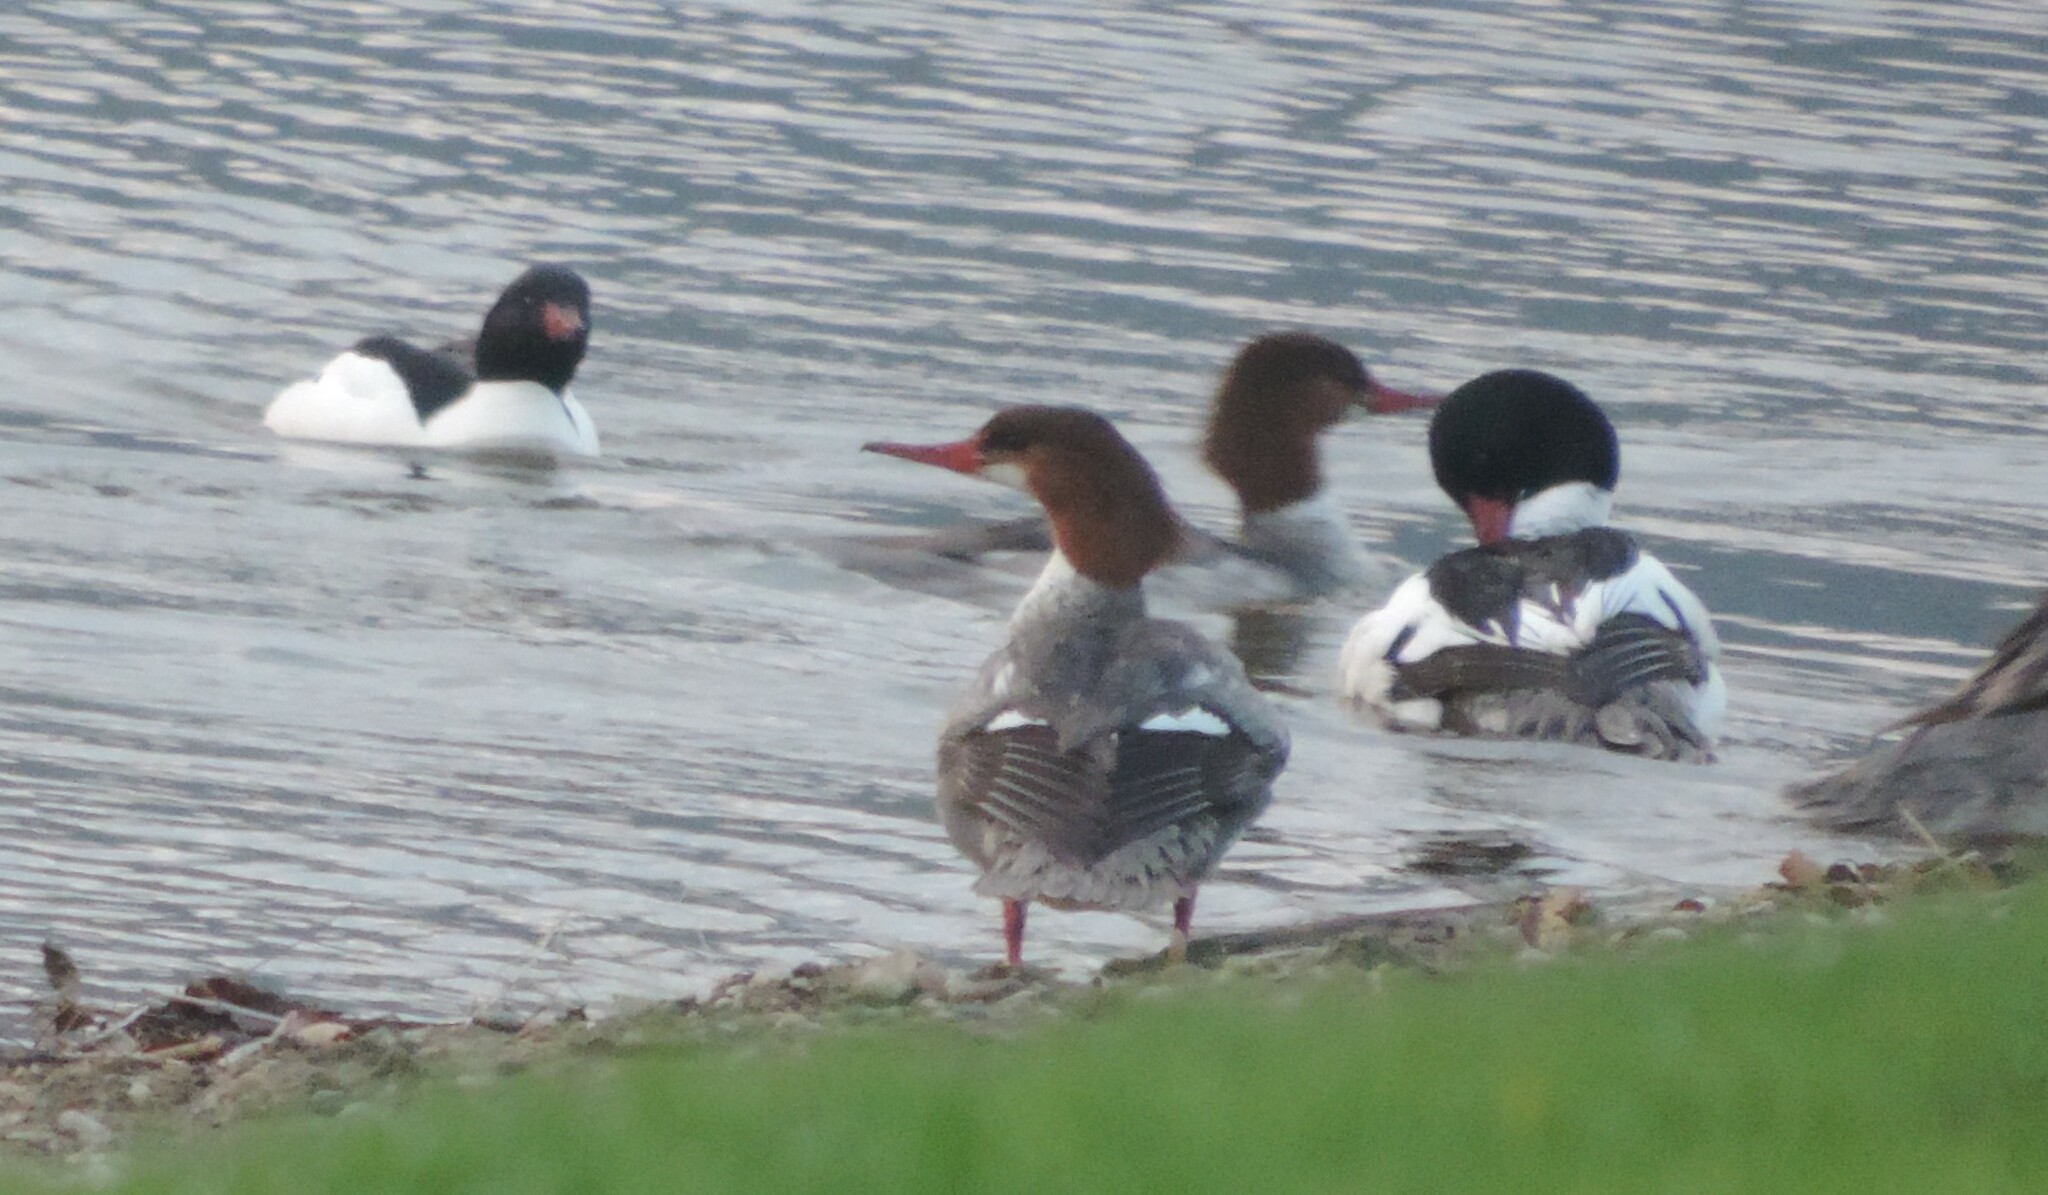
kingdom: Animalia
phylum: Chordata
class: Aves
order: Anseriformes
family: Anatidae
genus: Mergus
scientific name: Mergus merganser
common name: Common merganser
